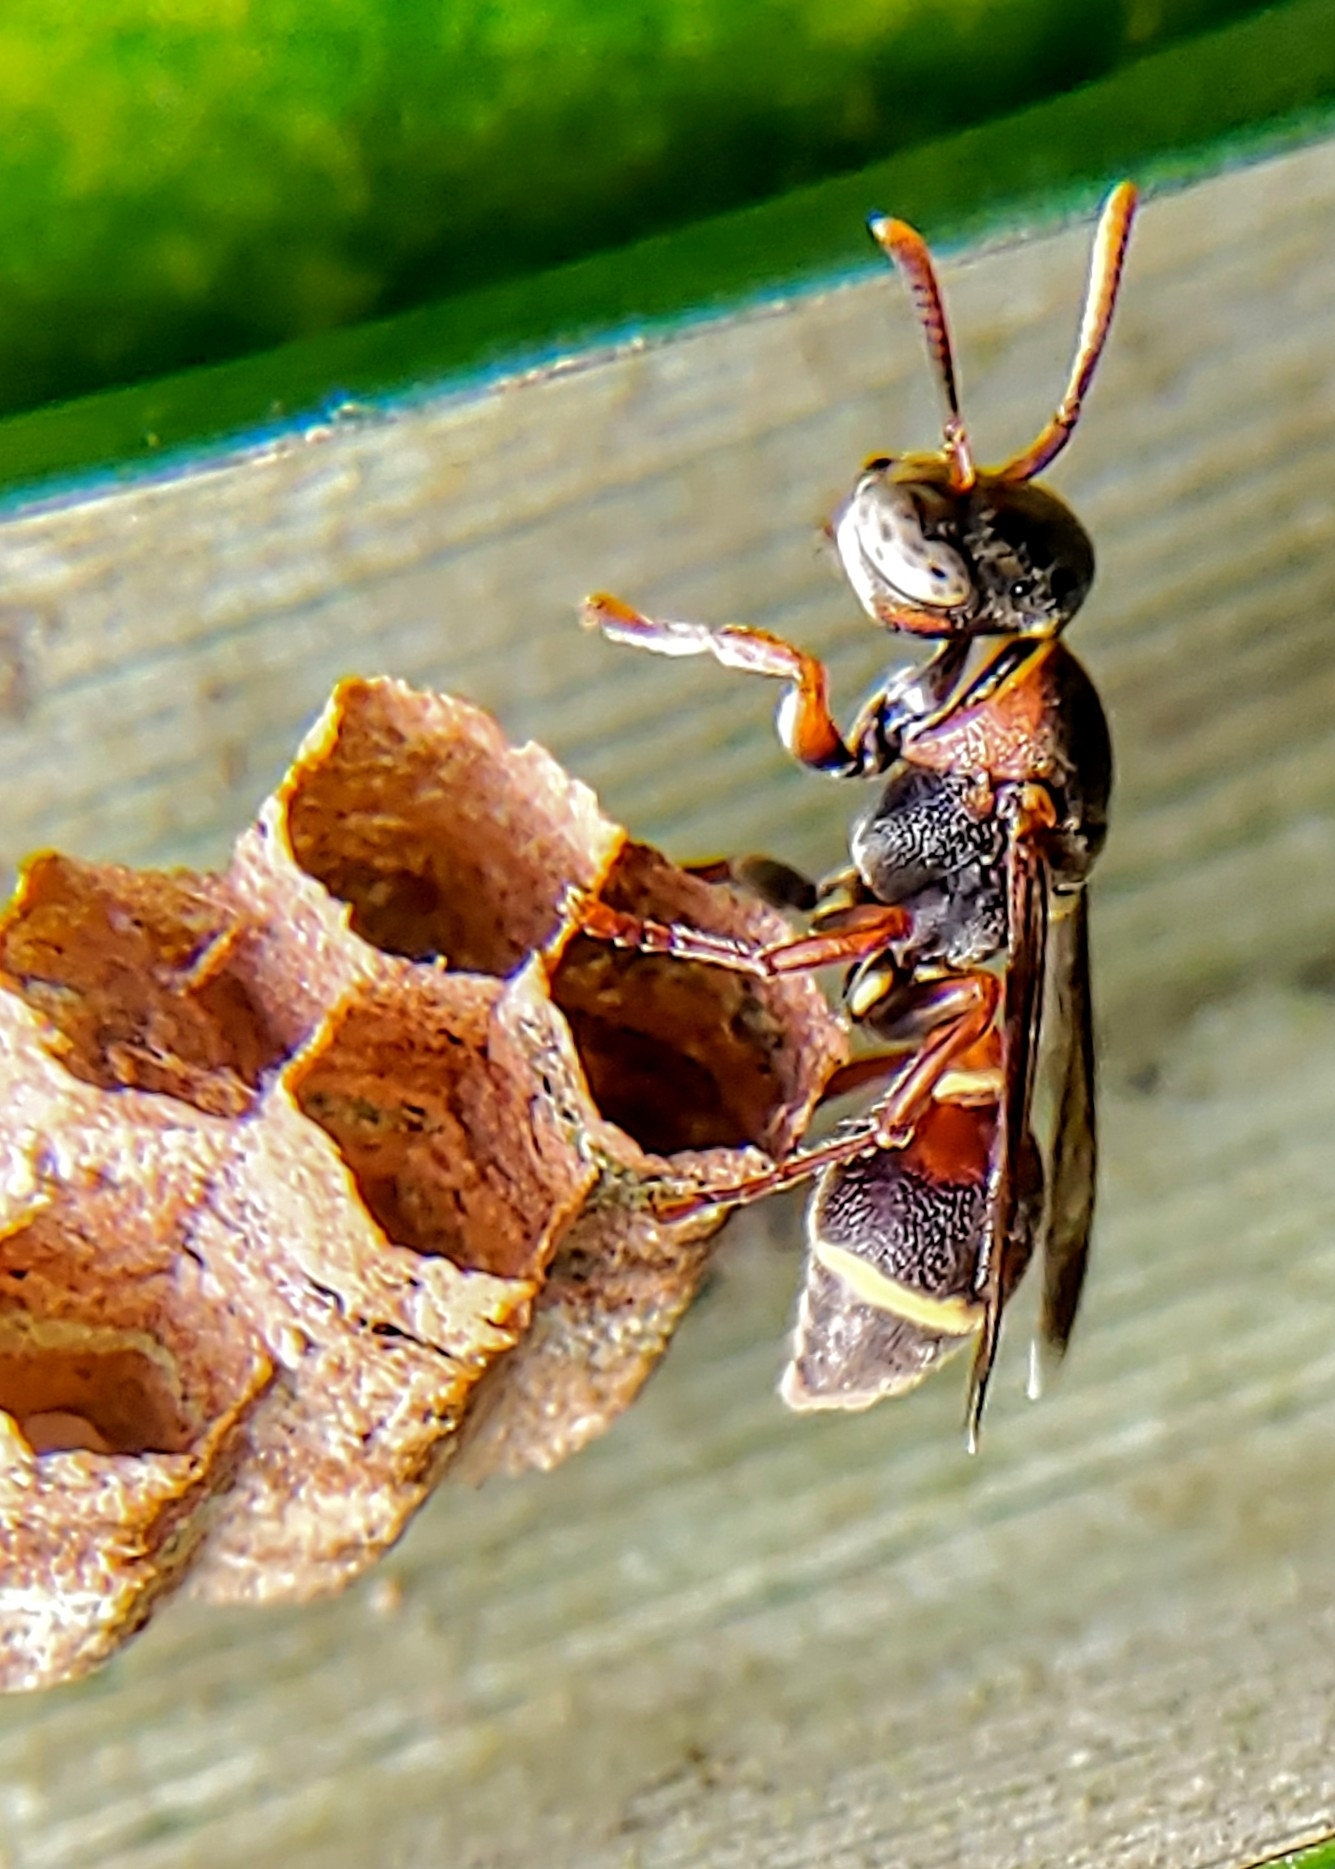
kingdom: Animalia
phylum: Arthropoda
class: Insecta
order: Hymenoptera
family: Vespidae
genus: Ropalidia
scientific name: Ropalidia rufoplagiata
